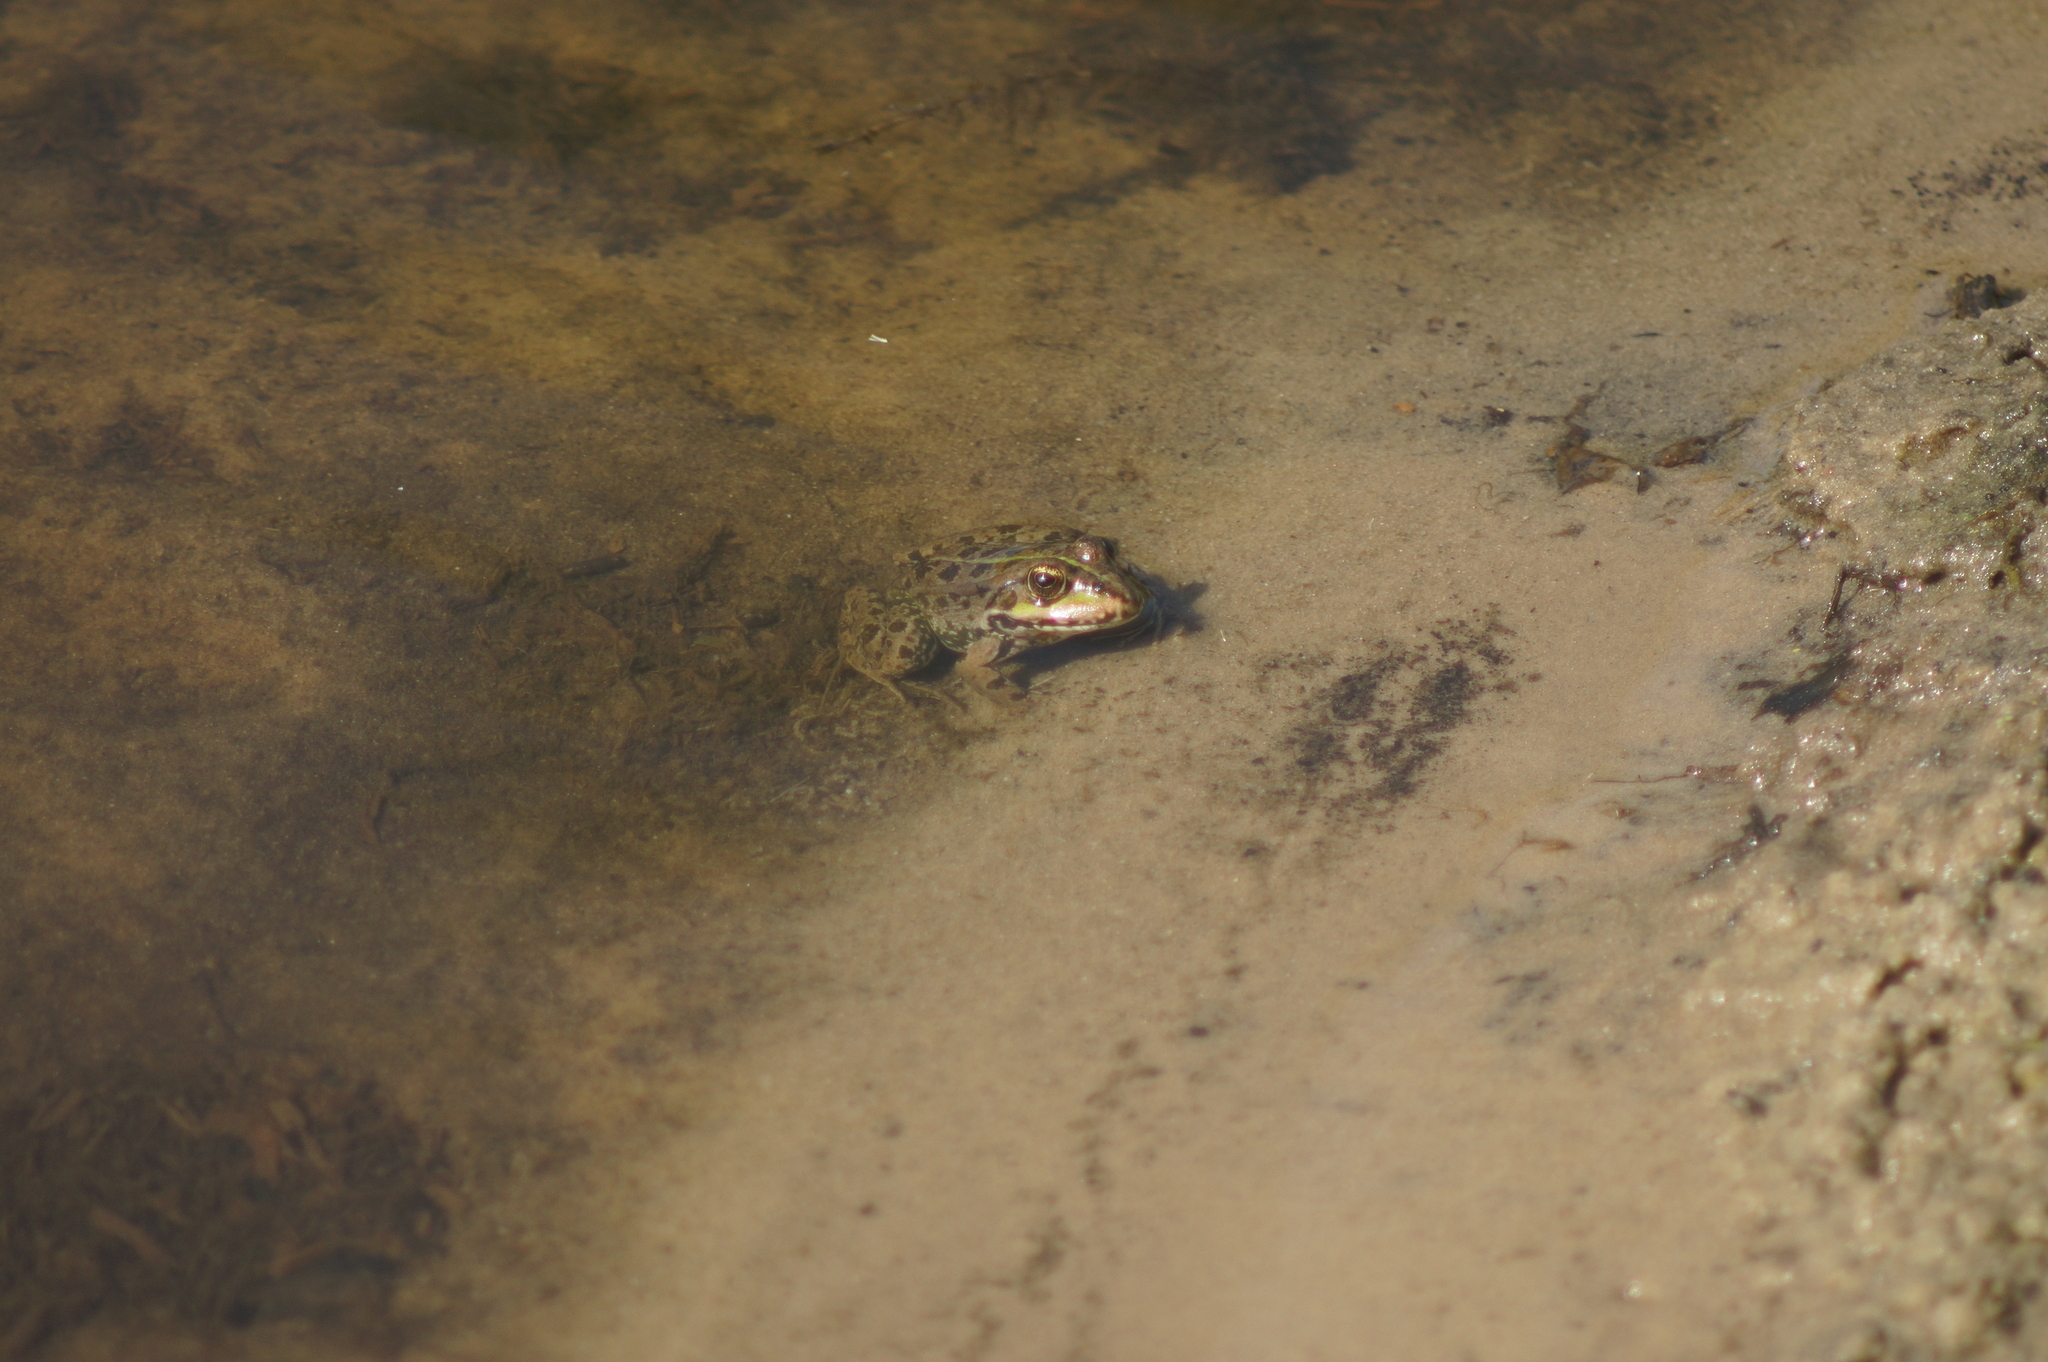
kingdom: Animalia
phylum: Chordata
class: Amphibia
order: Anura
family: Ranidae
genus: Pelophylax
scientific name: Pelophylax ridibundus
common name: Marsh frog
